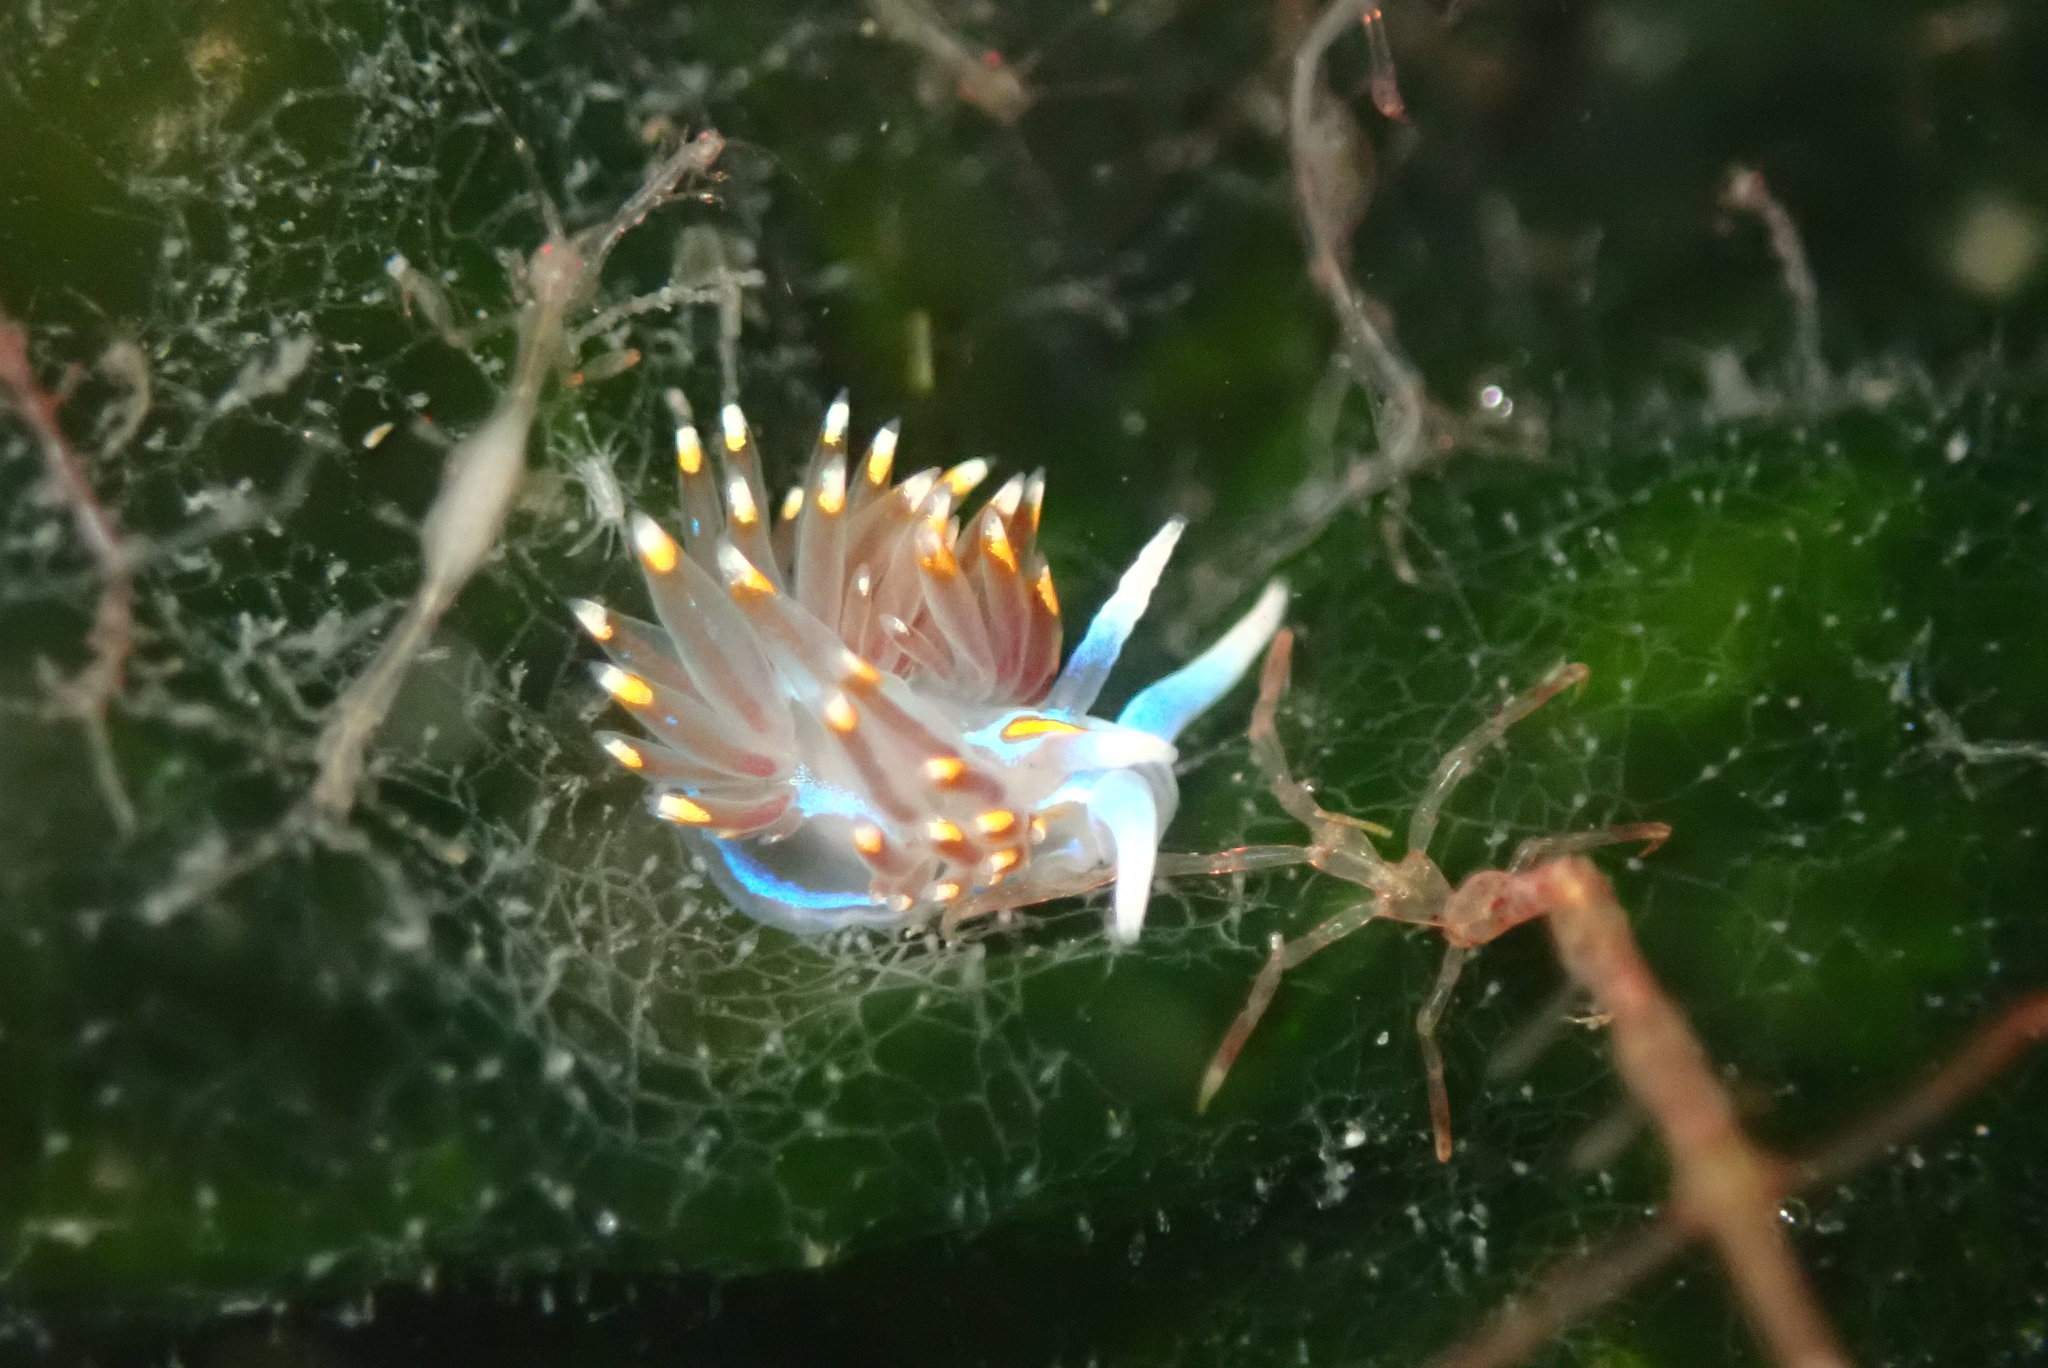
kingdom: Animalia
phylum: Mollusca
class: Gastropoda
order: Nudibranchia
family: Myrrhinidae
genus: Hermissenda
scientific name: Hermissenda opalescens
